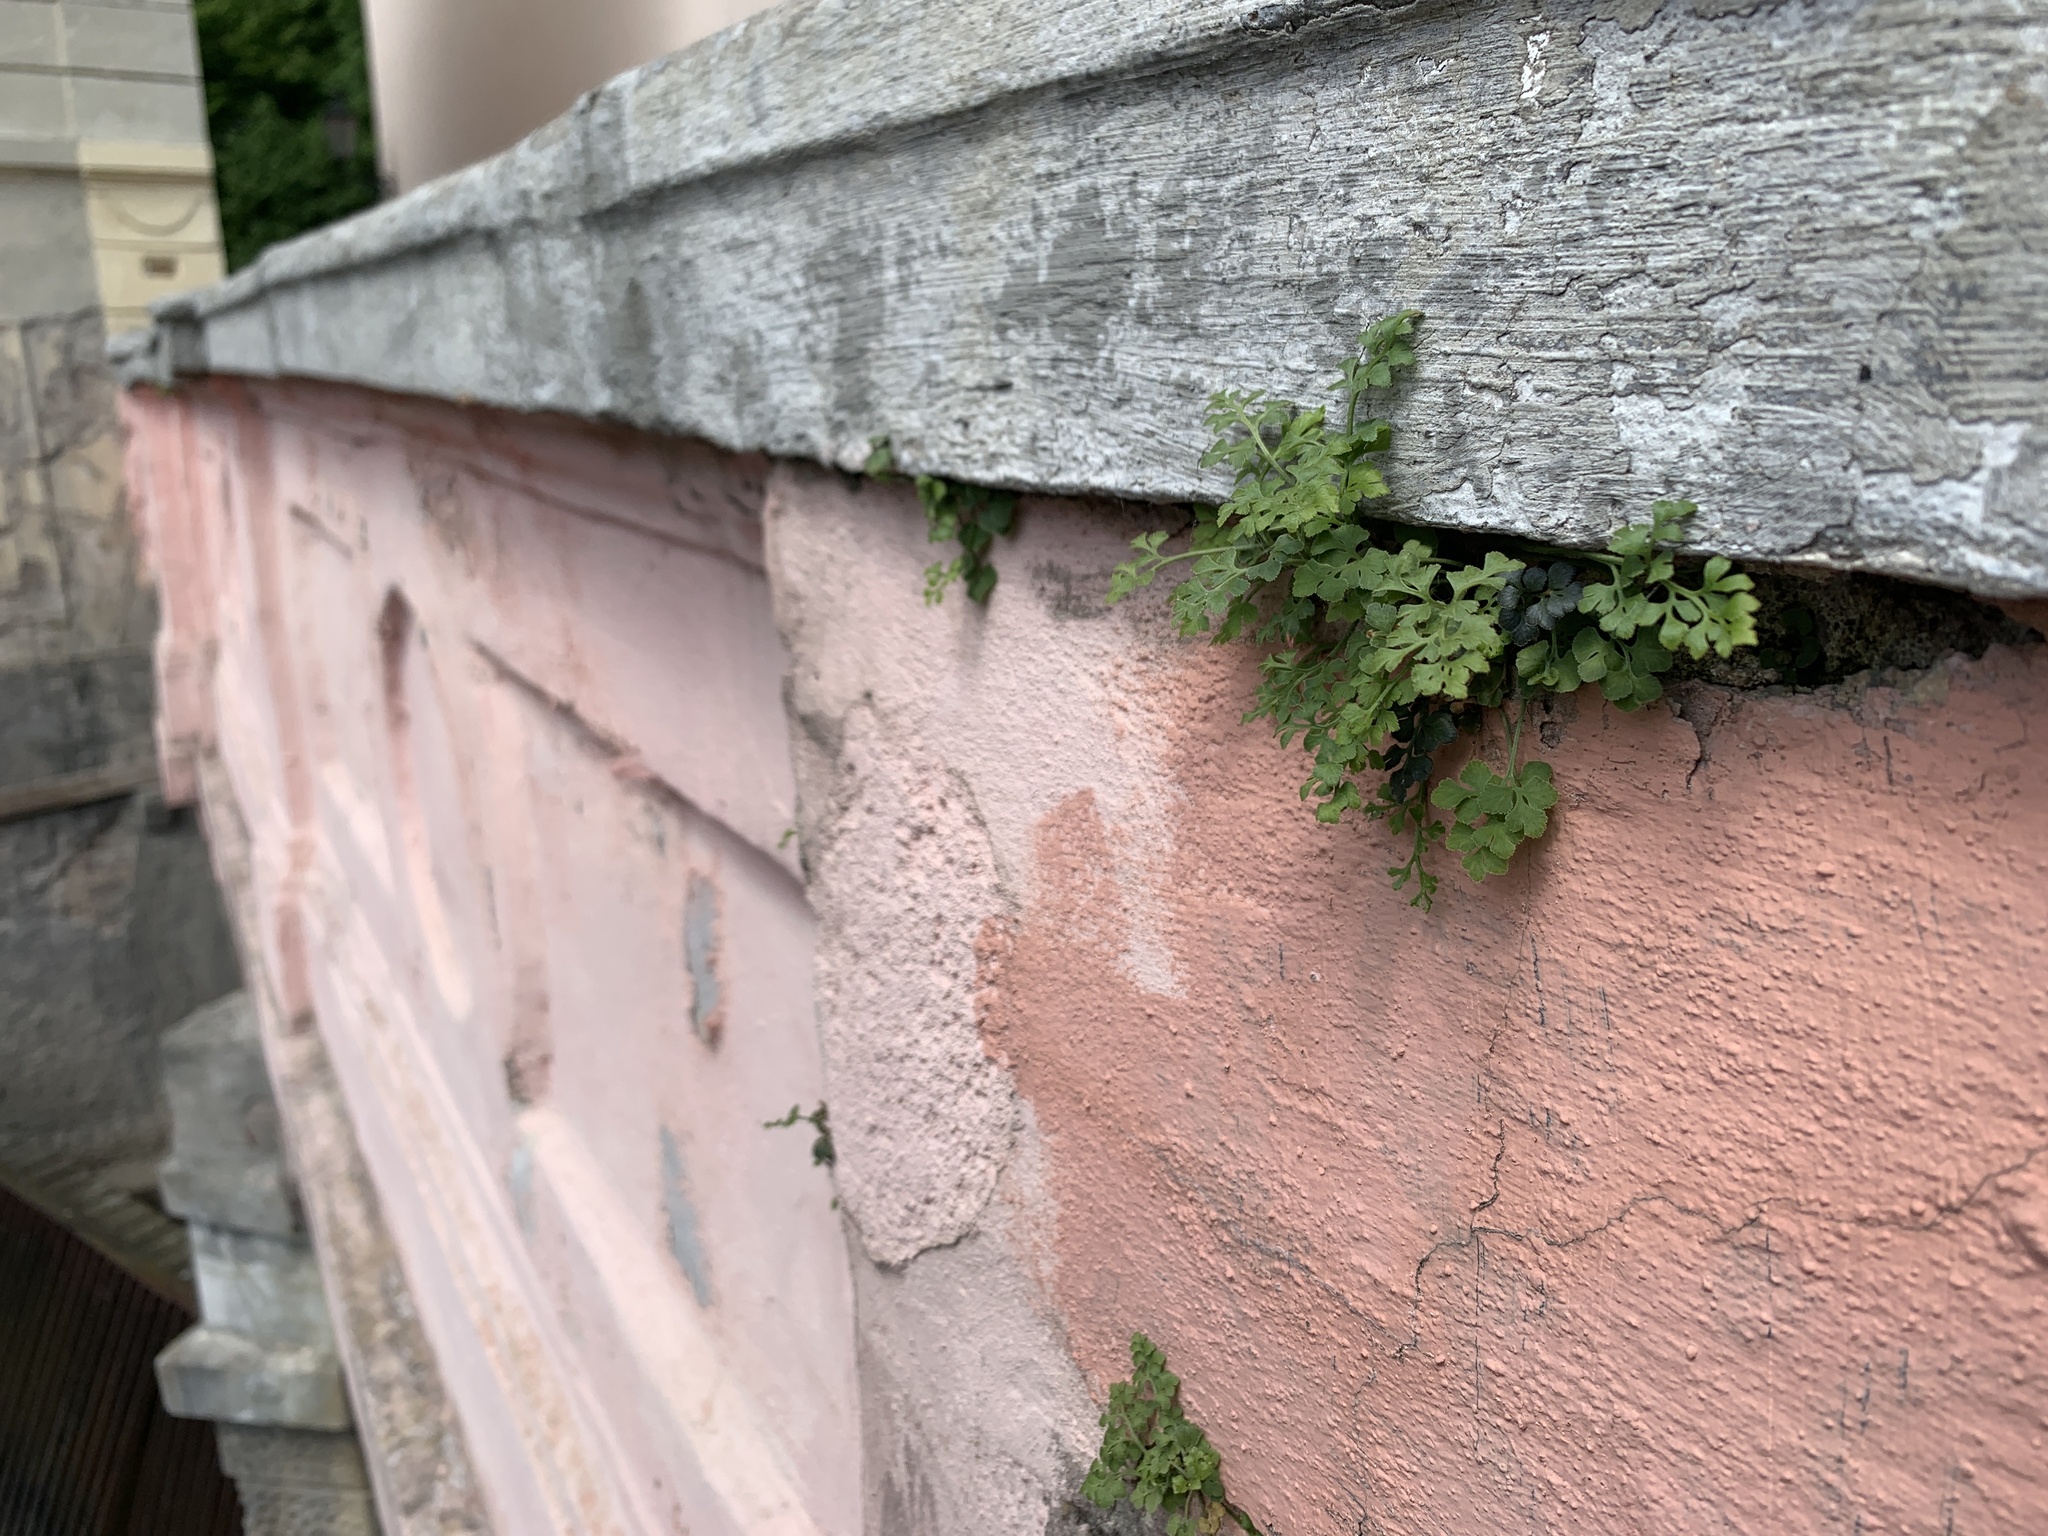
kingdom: Plantae
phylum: Tracheophyta
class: Polypodiopsida
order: Polypodiales
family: Aspleniaceae
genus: Asplenium
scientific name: Asplenium ruta-muraria
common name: Wall-rue
